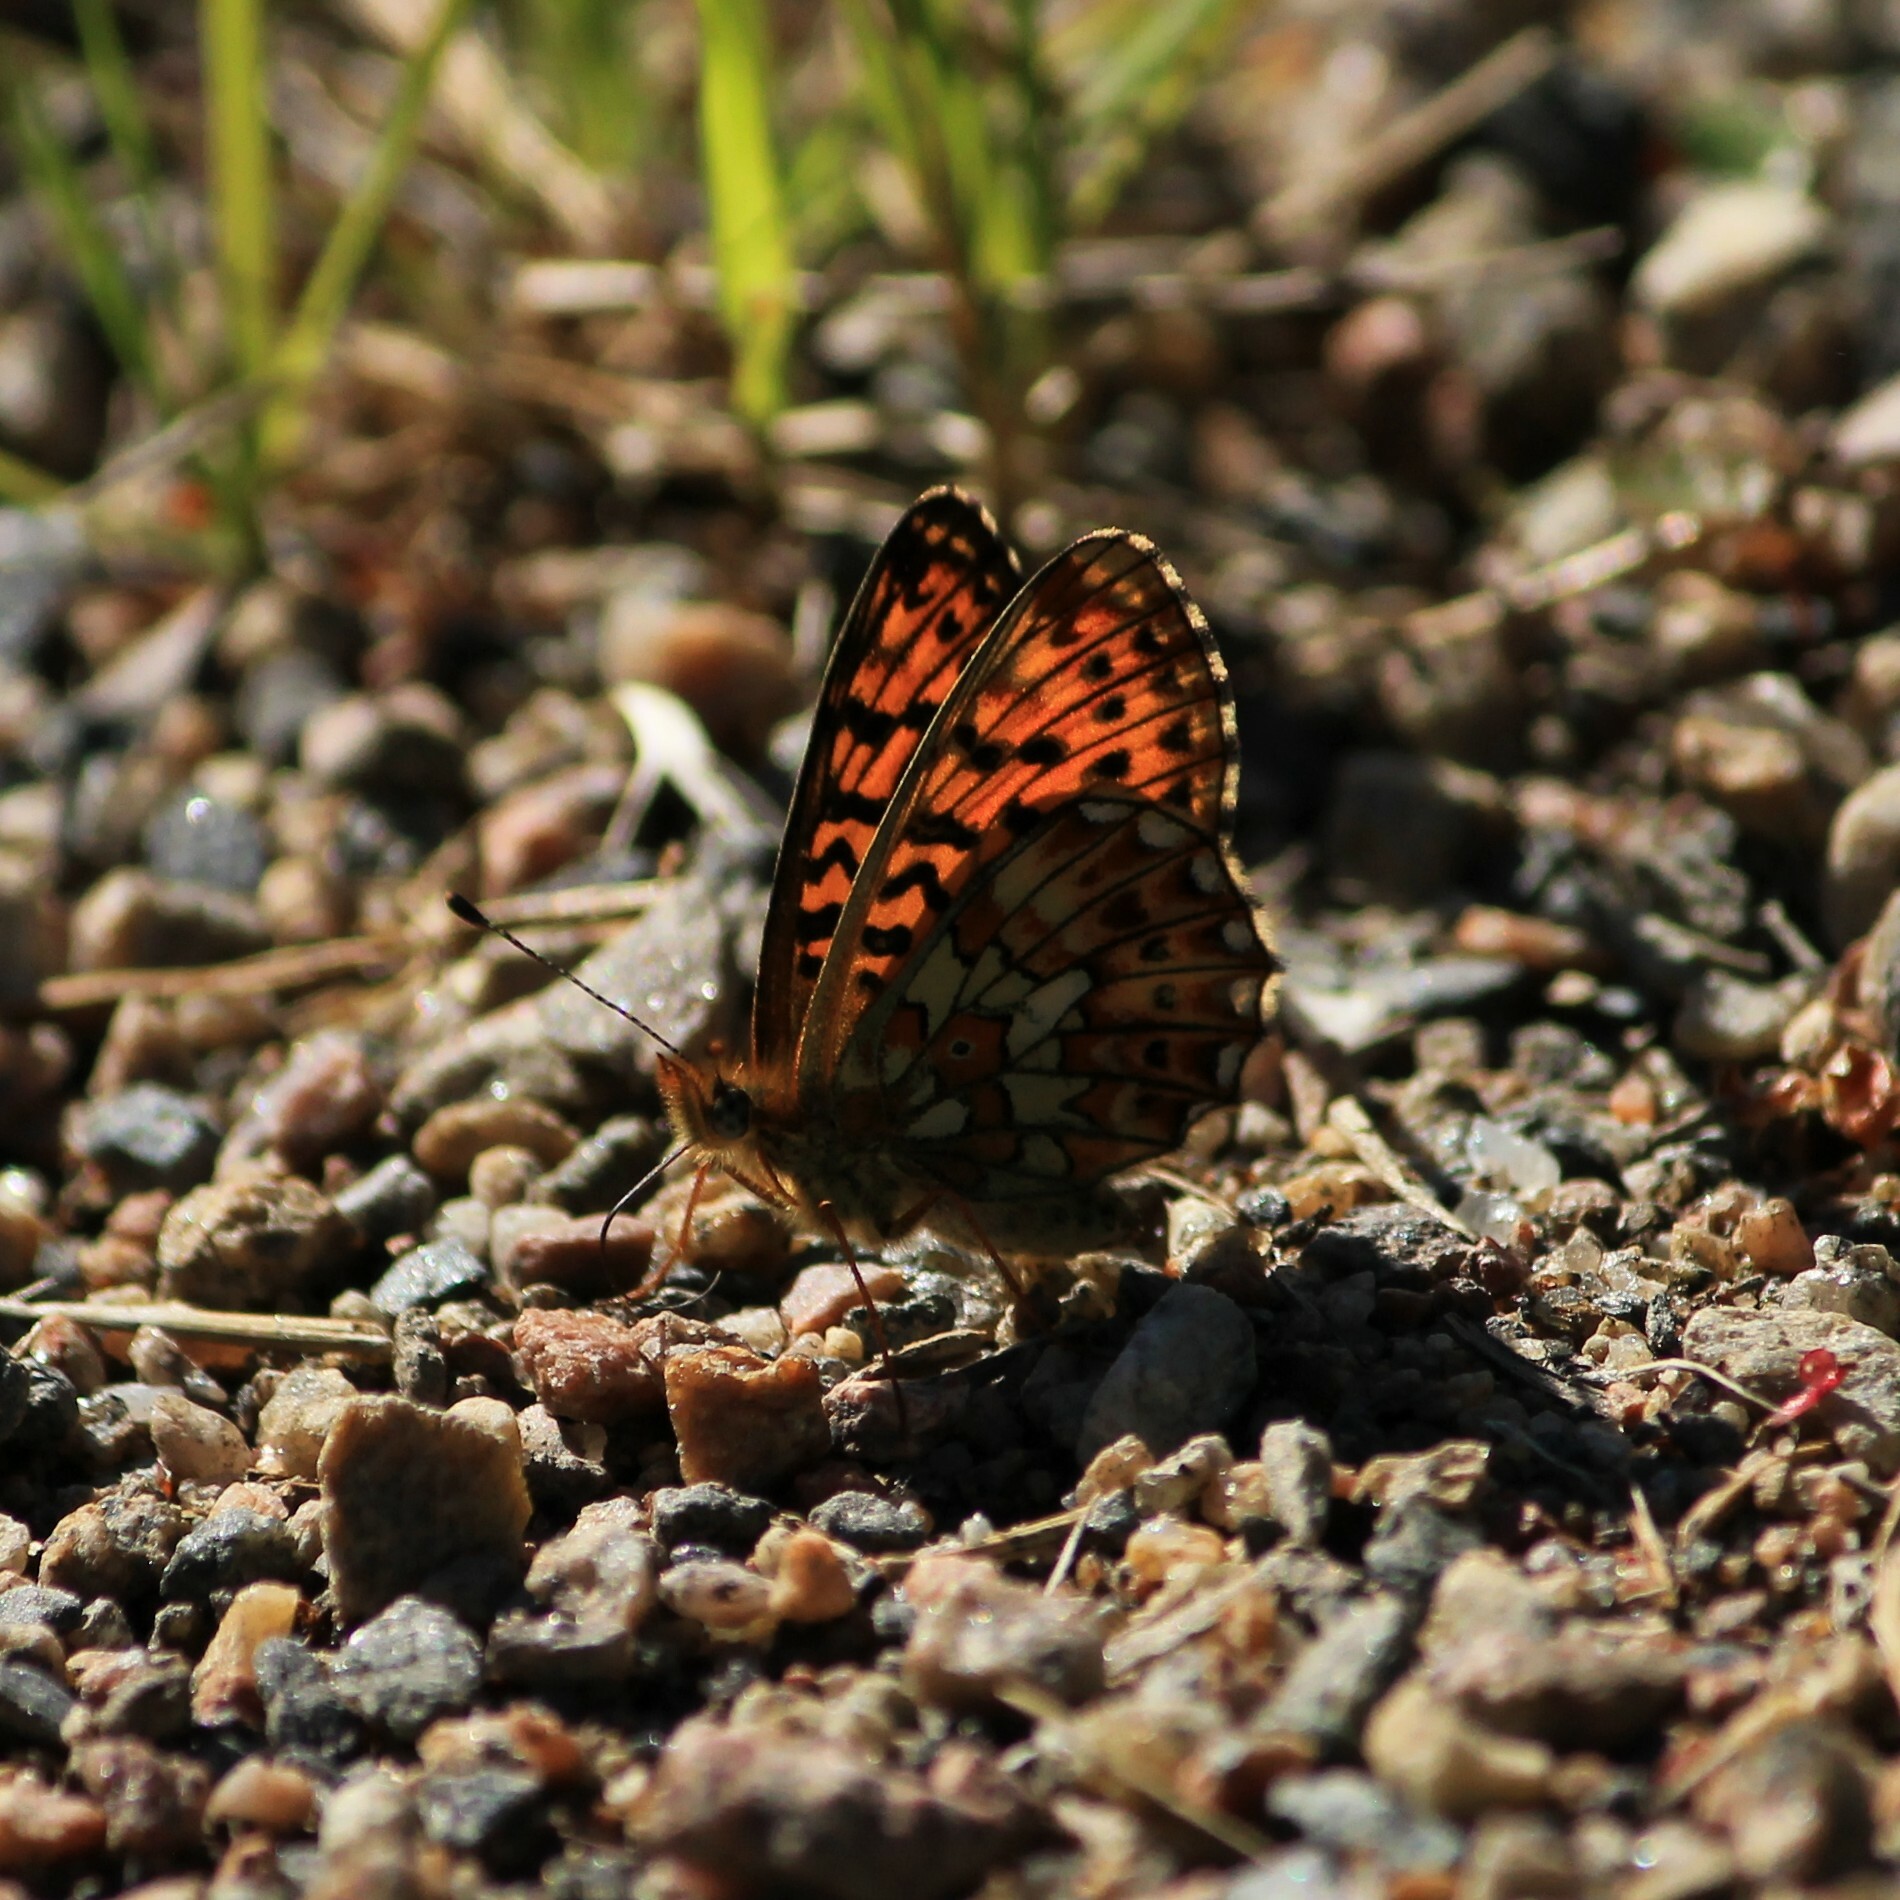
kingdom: Animalia
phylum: Arthropoda
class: Insecta
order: Lepidoptera
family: Nymphalidae
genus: Clossiana
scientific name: Clossiana euphrosyne
